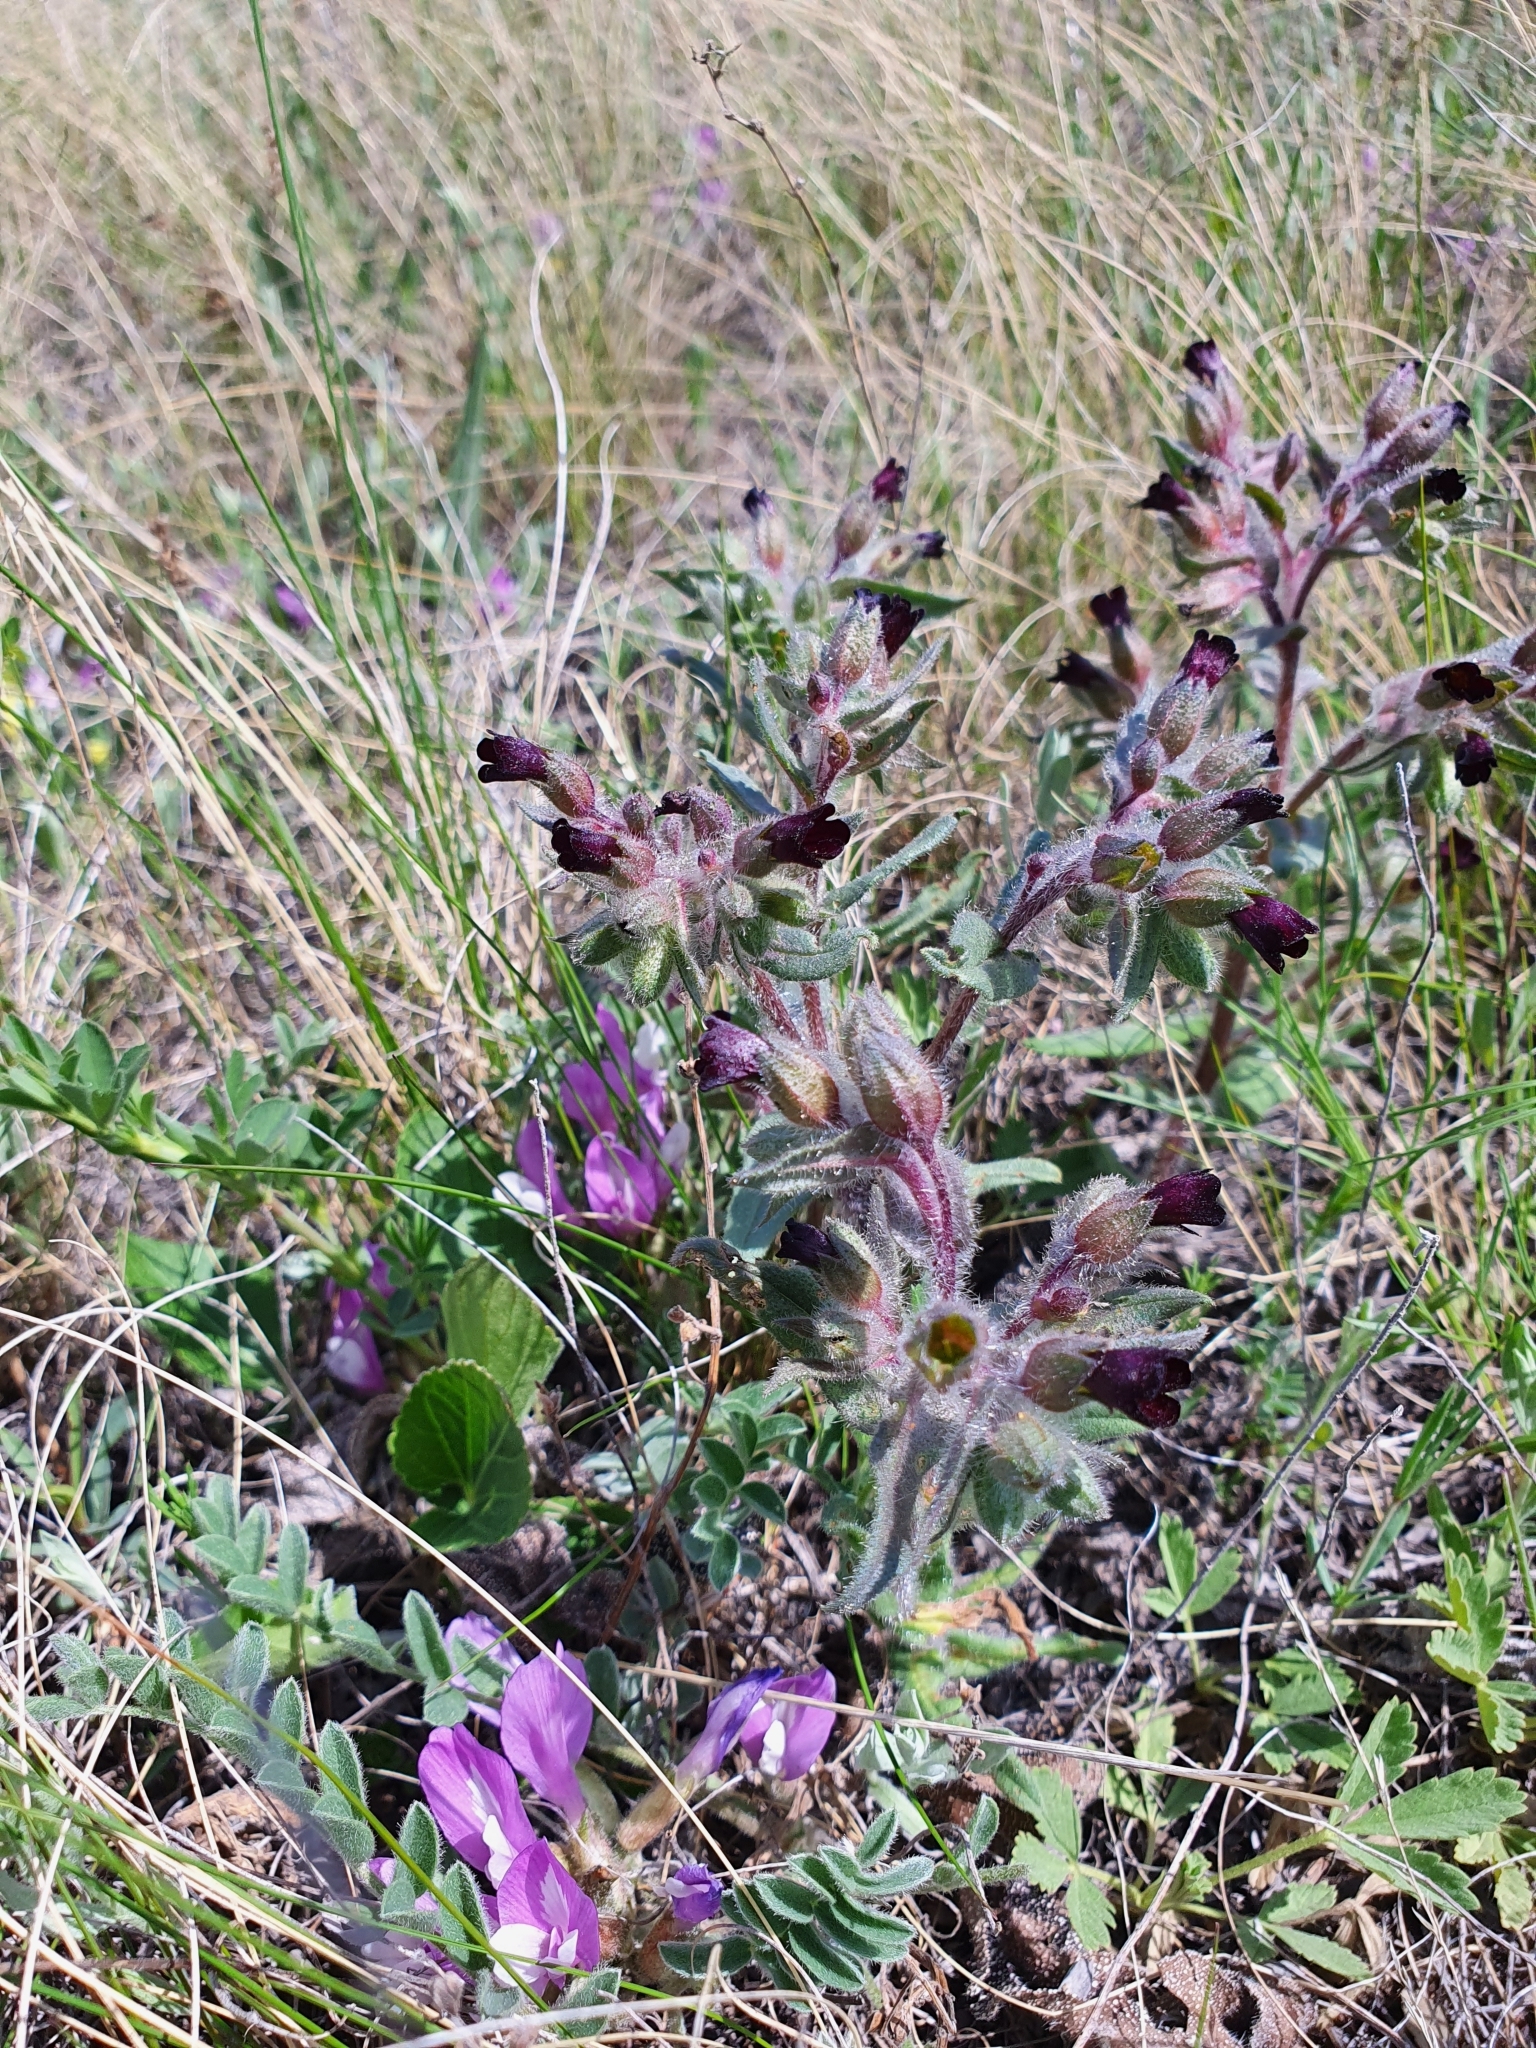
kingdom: Plantae
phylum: Tracheophyta
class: Magnoliopsida
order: Boraginales
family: Boraginaceae
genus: Nonea
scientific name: Nonea pulla
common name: Brown nonea
